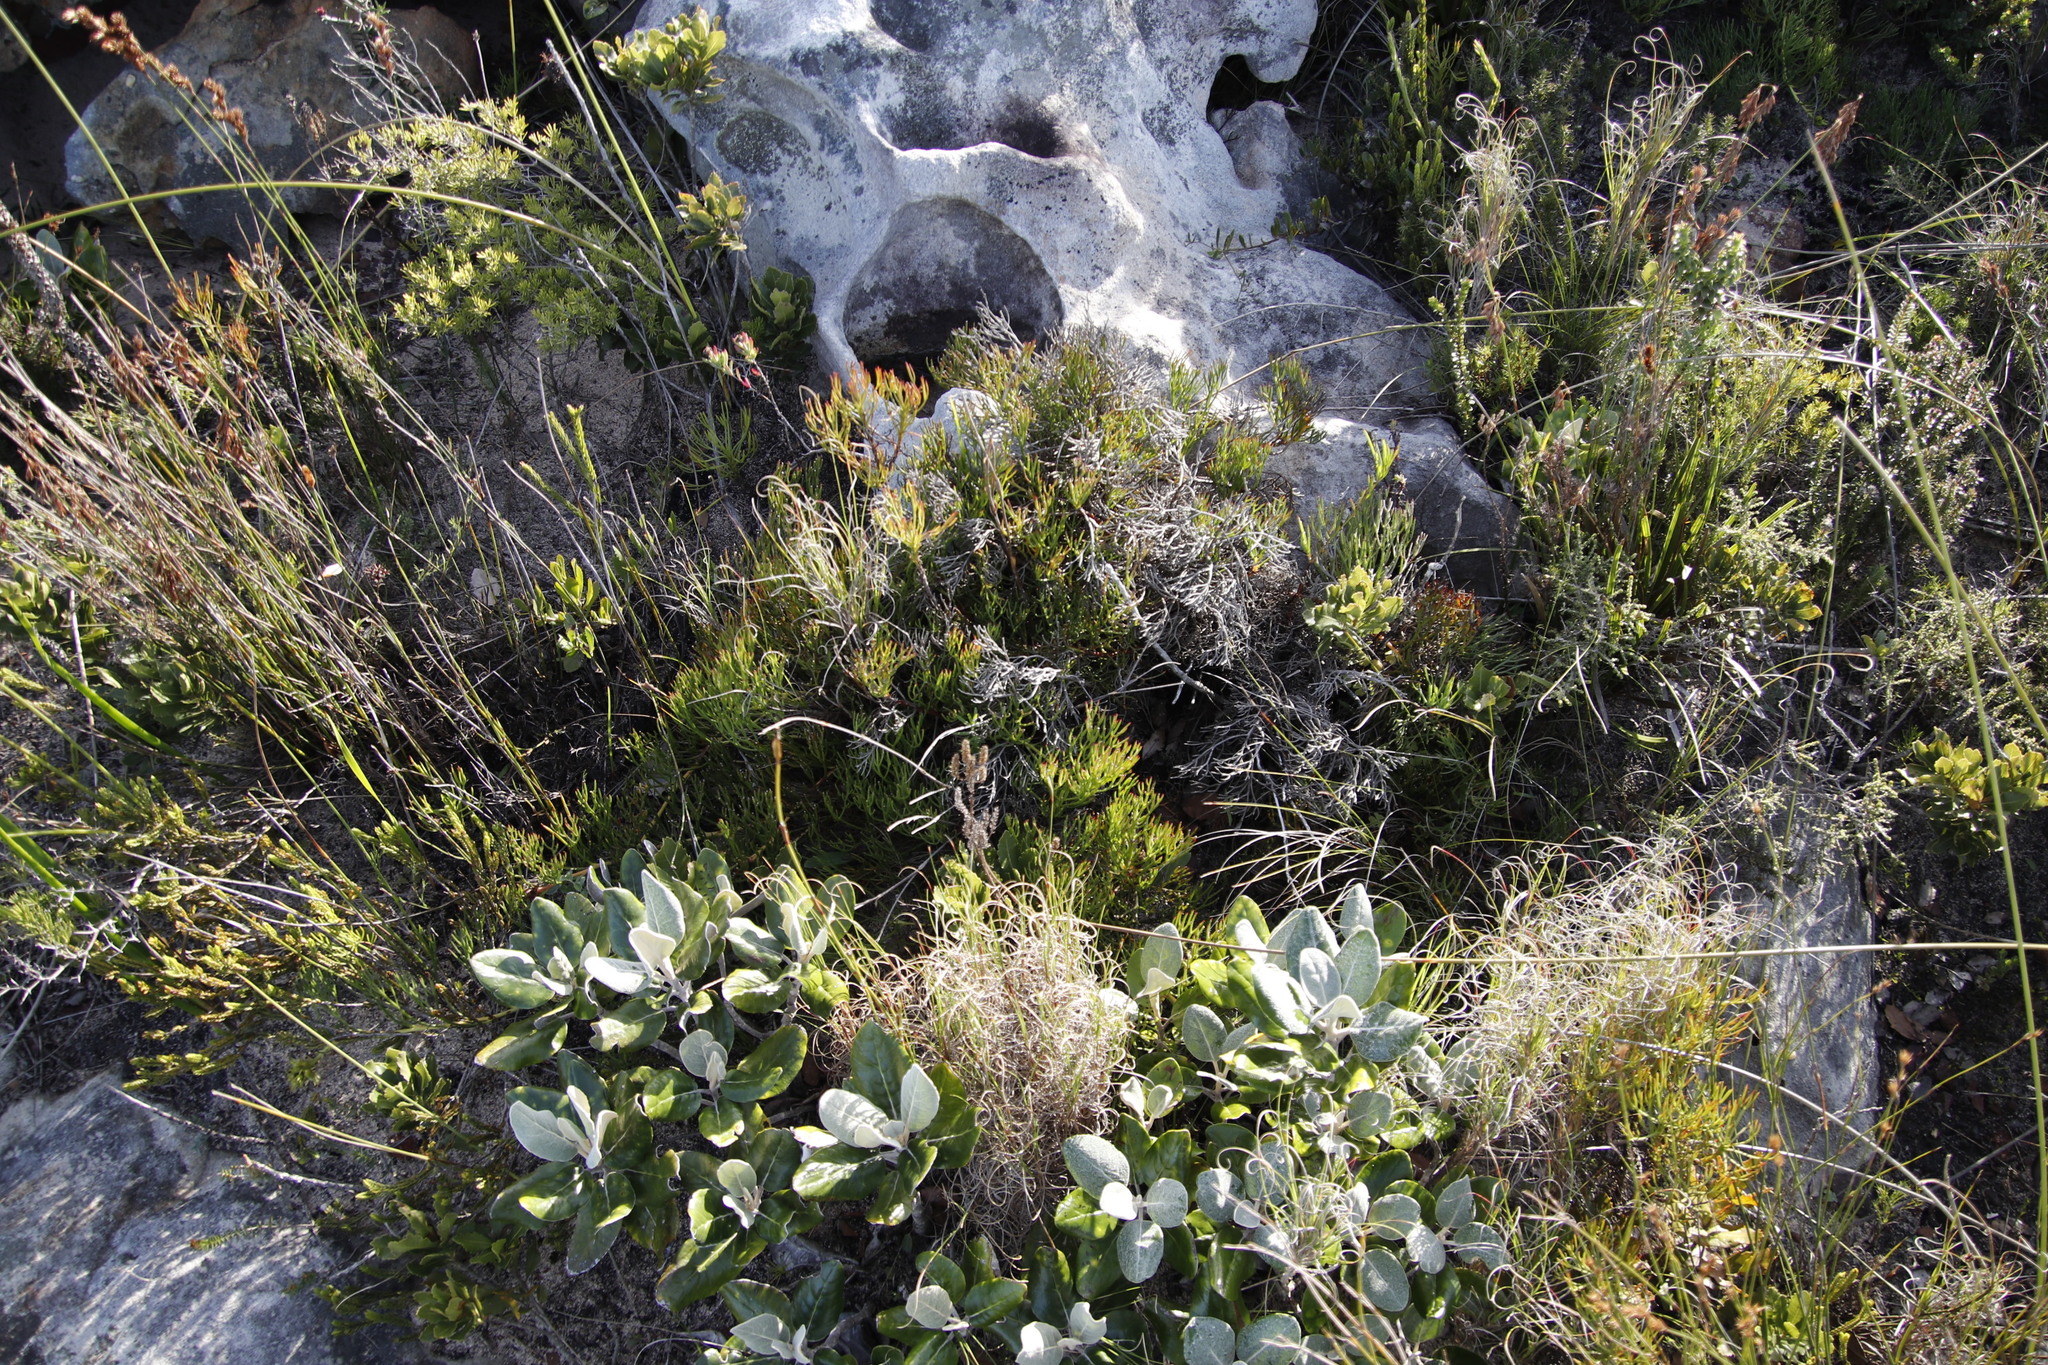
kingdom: Plantae
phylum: Tracheophyta
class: Magnoliopsida
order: Proteales
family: Proteaceae
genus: Serruria
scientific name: Serruria collina
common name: Lost spiderhead
